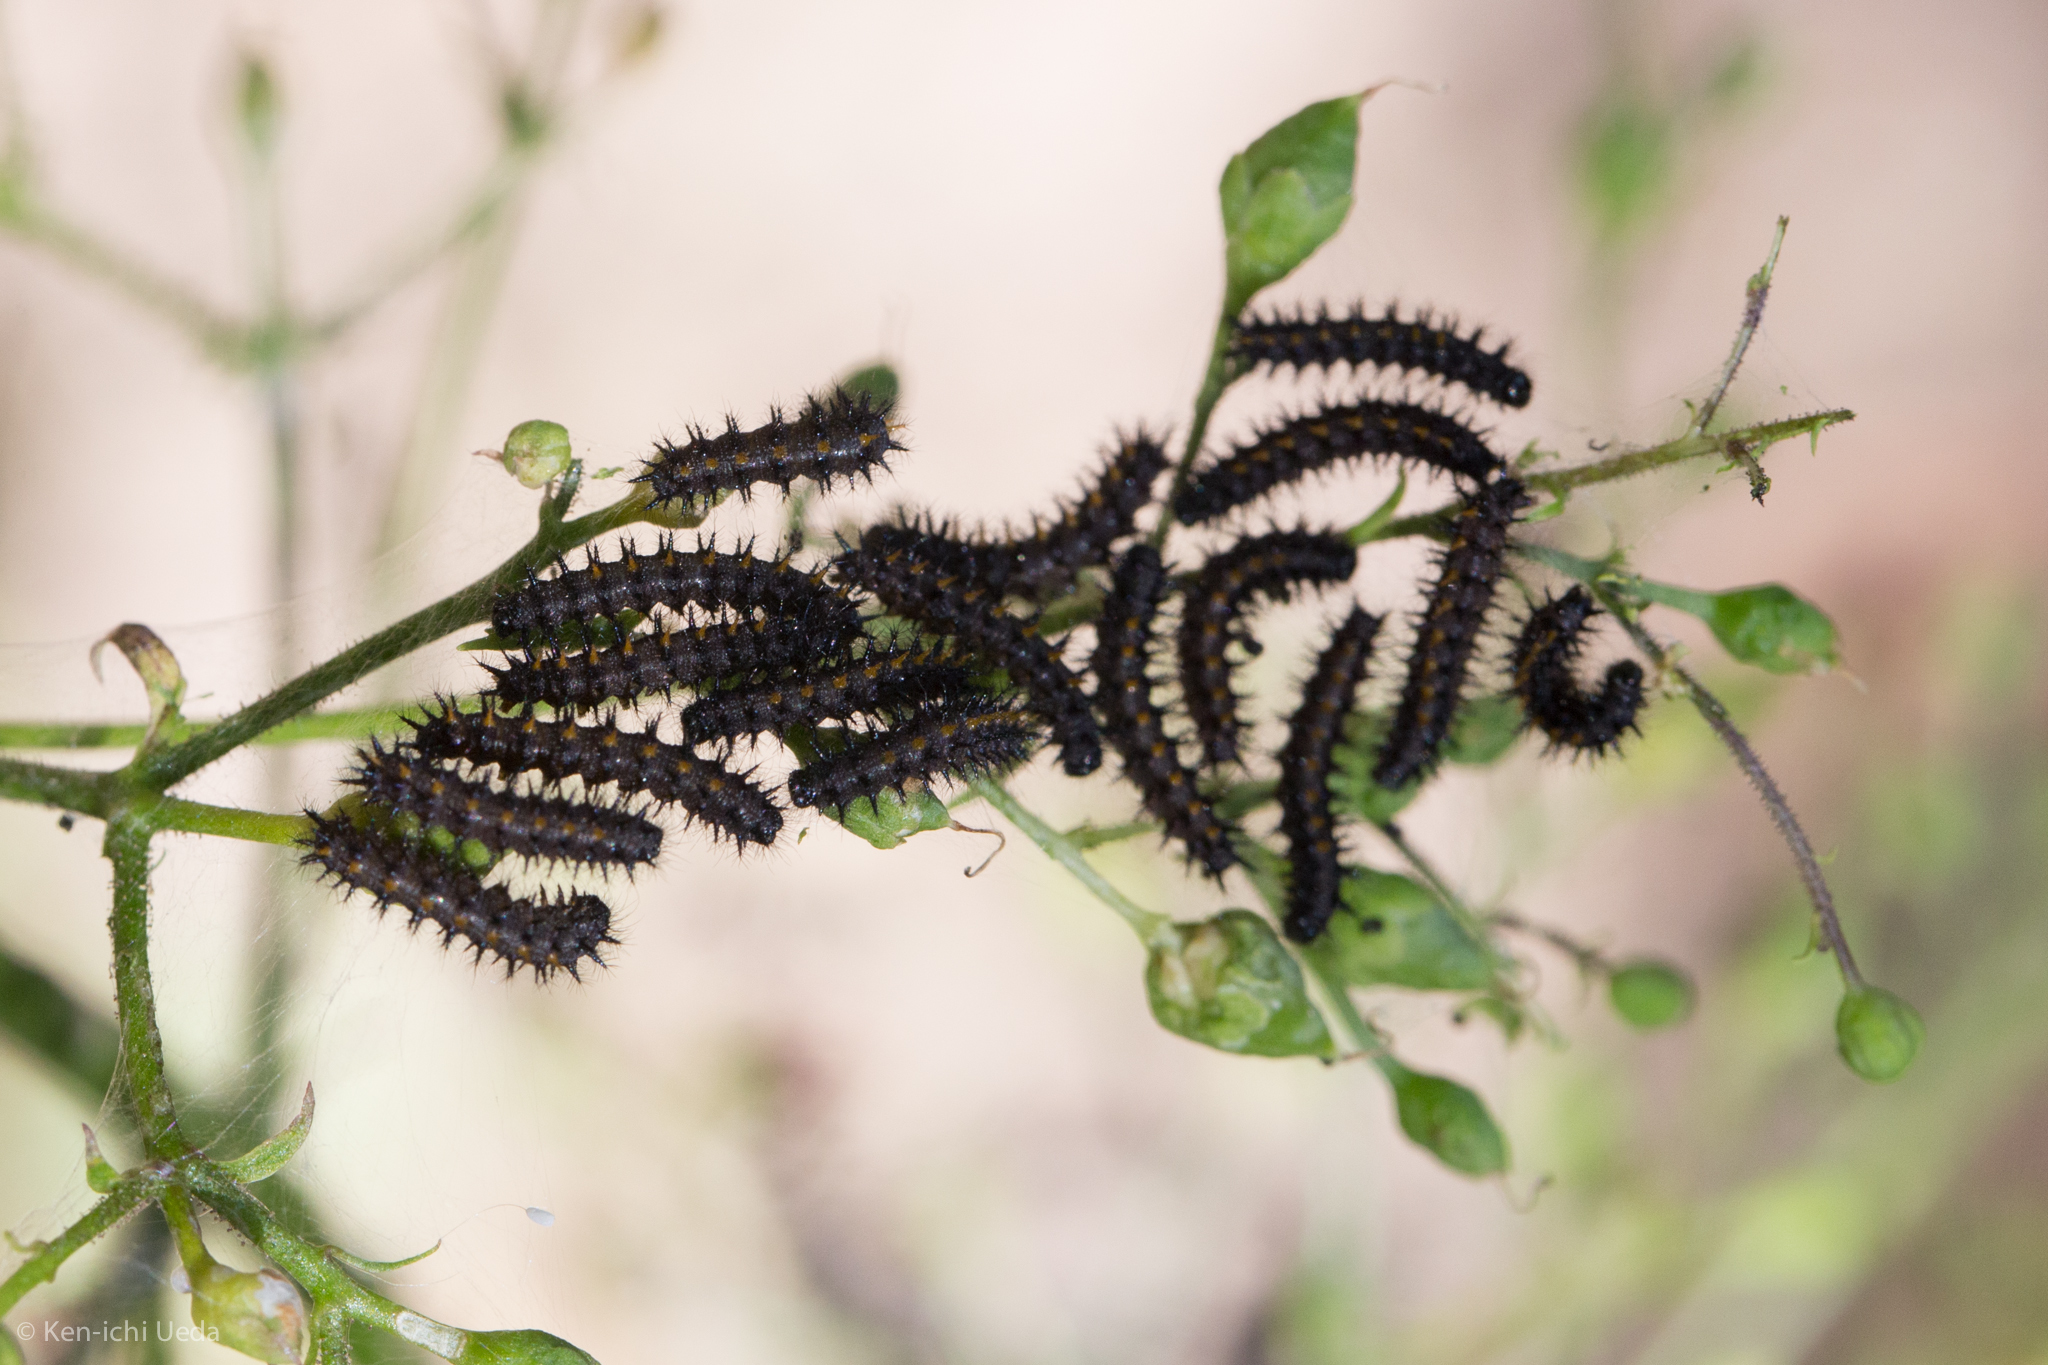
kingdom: Animalia
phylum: Arthropoda
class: Insecta
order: Lepidoptera
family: Nymphalidae
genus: Occidryas
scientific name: Occidryas chalcedona
